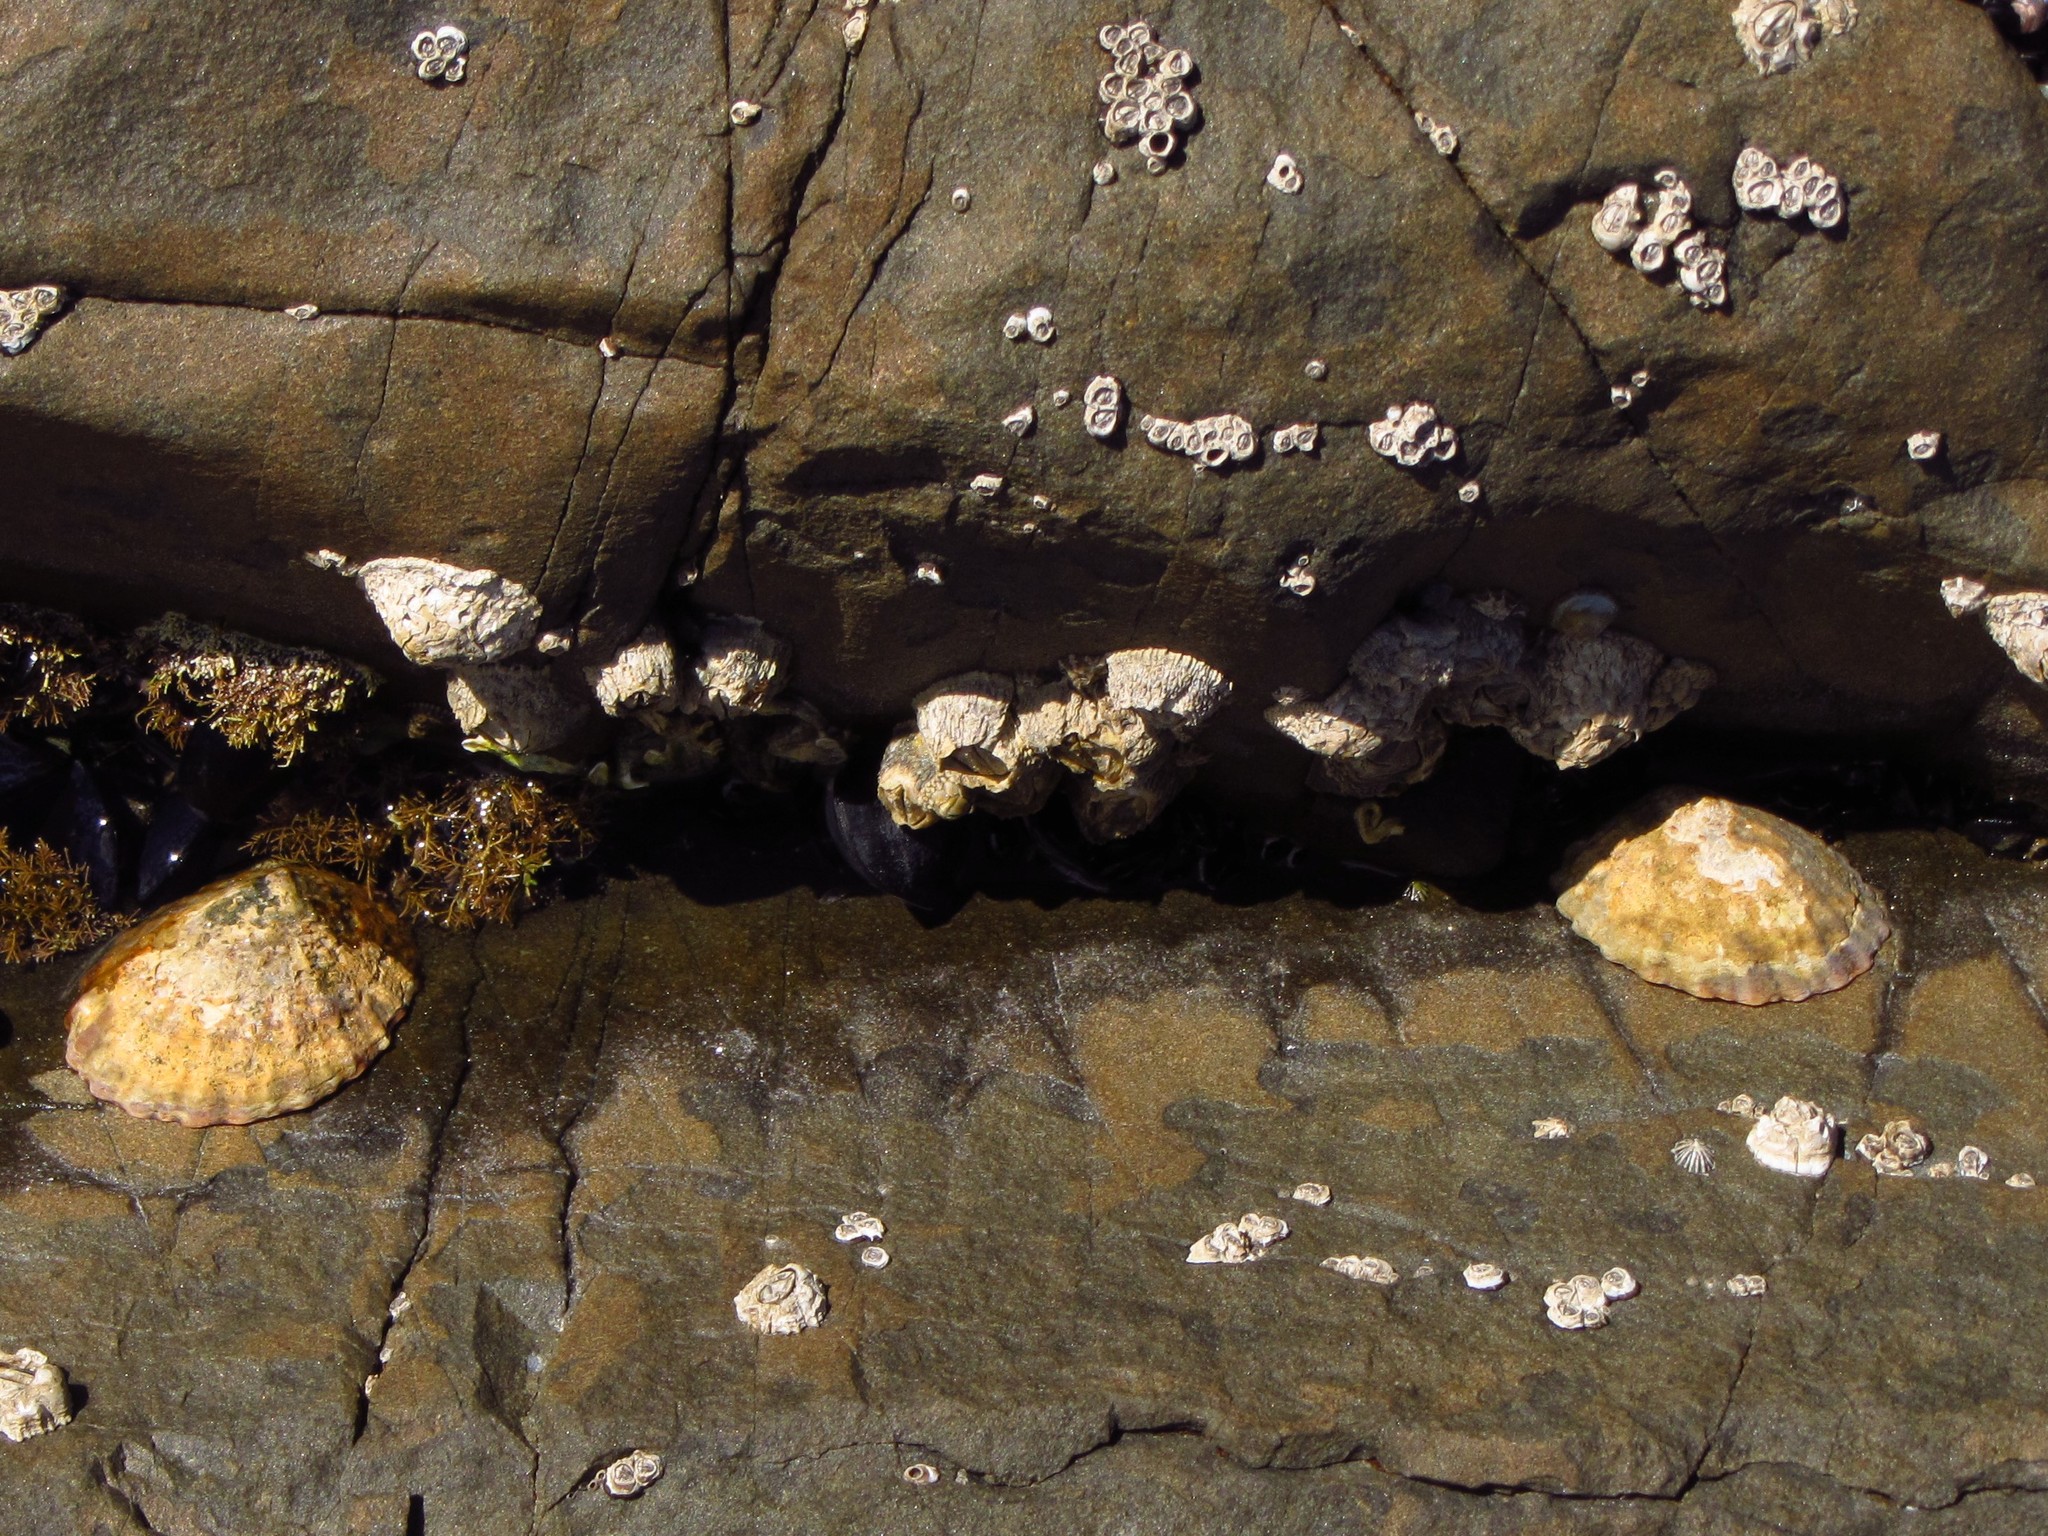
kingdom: Animalia
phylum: Mollusca
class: Gastropoda
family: Nacellidae
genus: Cellana
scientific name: Cellana solida
